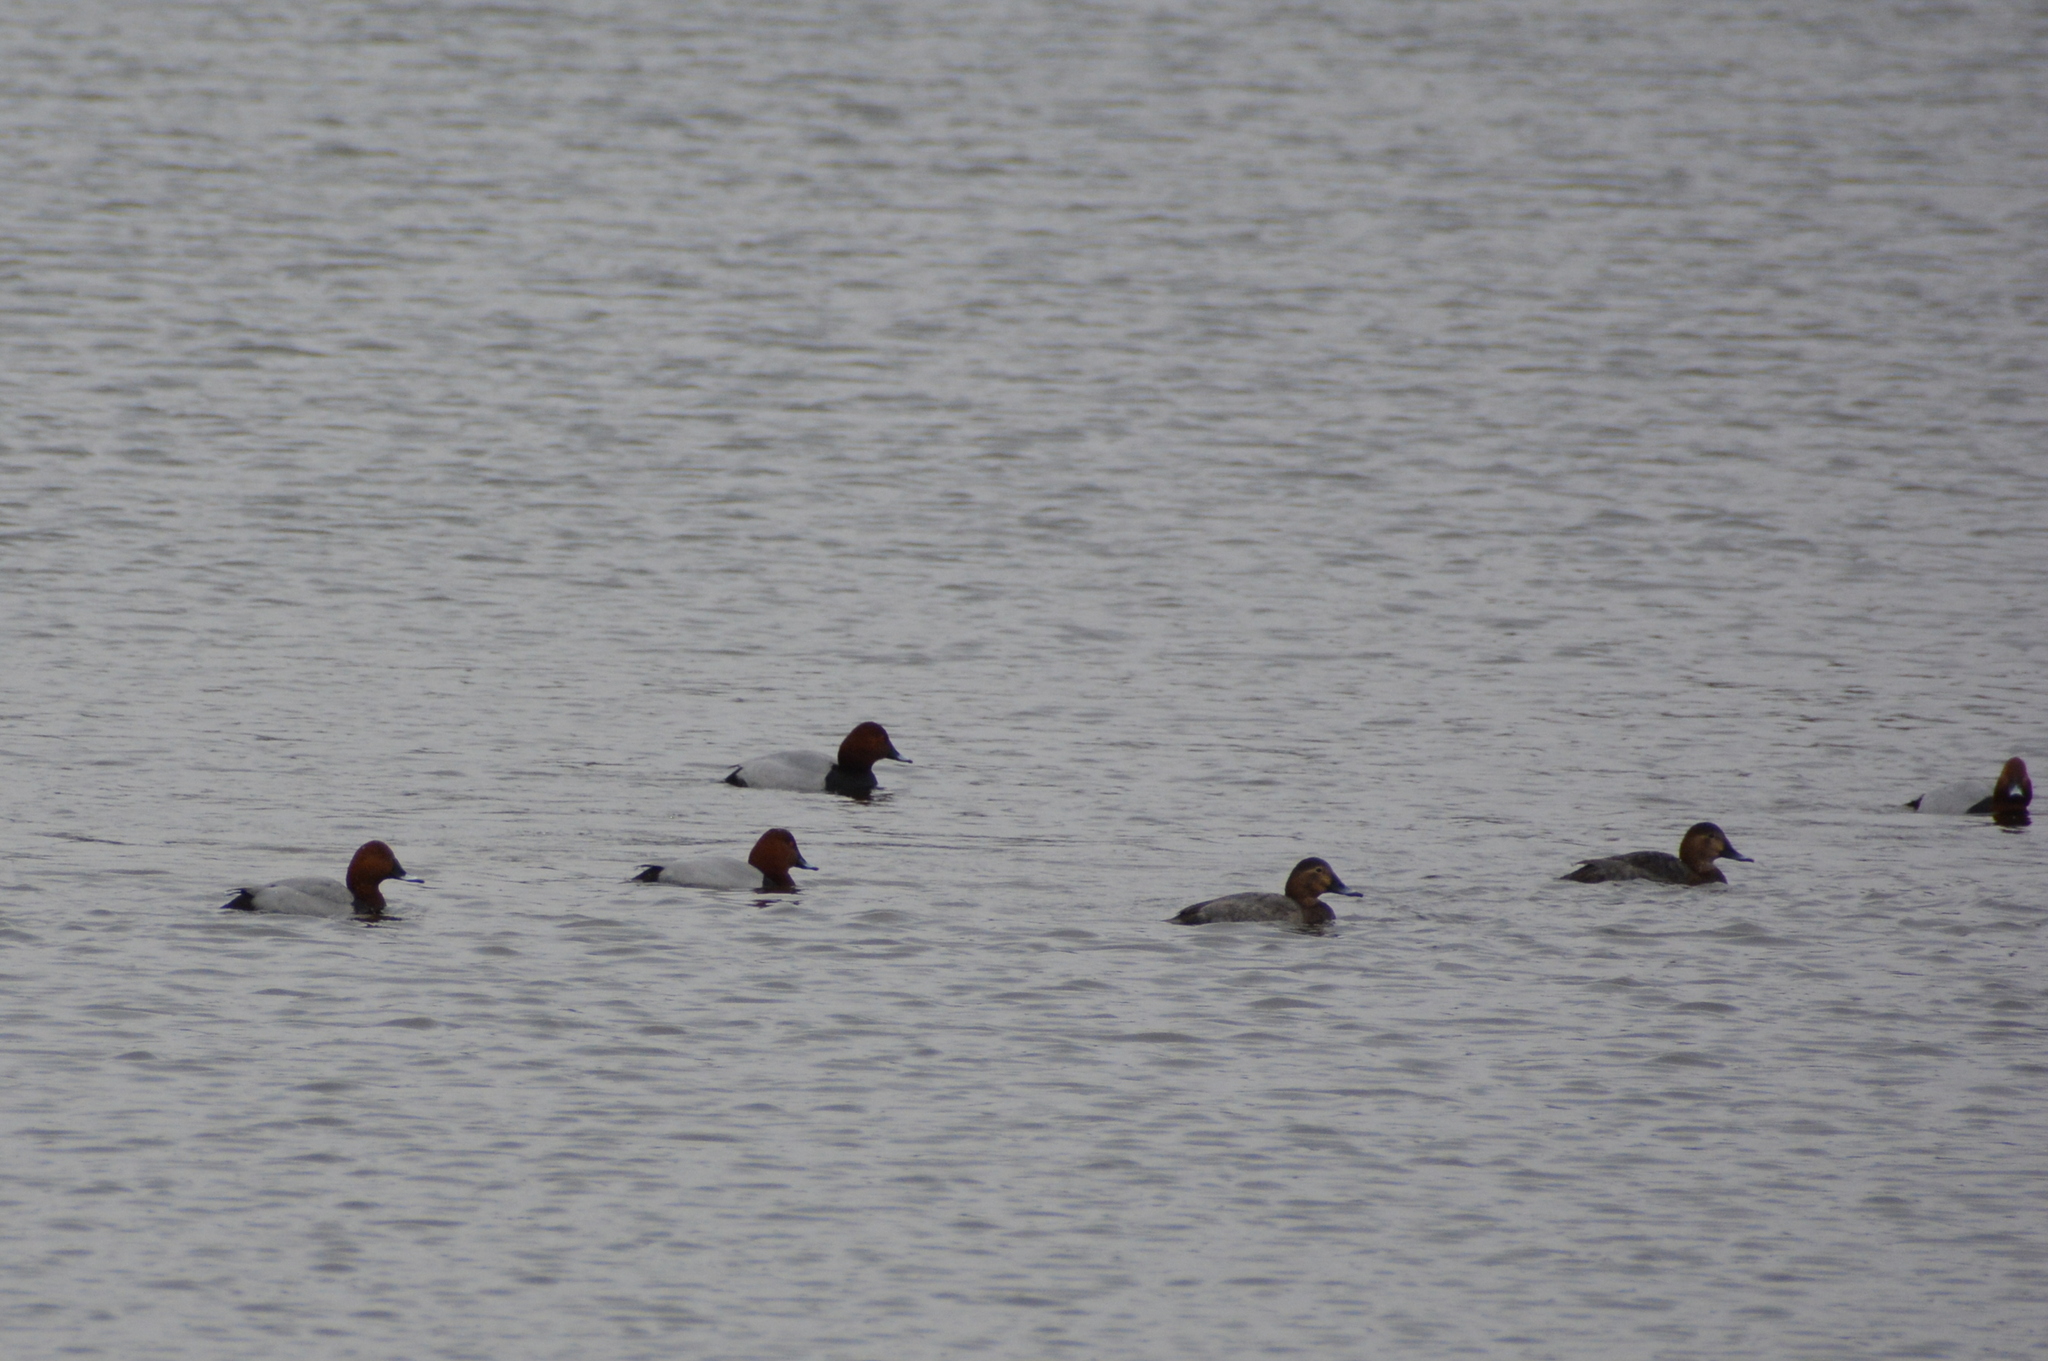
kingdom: Animalia
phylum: Chordata
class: Aves
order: Anseriformes
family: Anatidae
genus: Aythya
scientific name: Aythya ferina
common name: Common pochard
